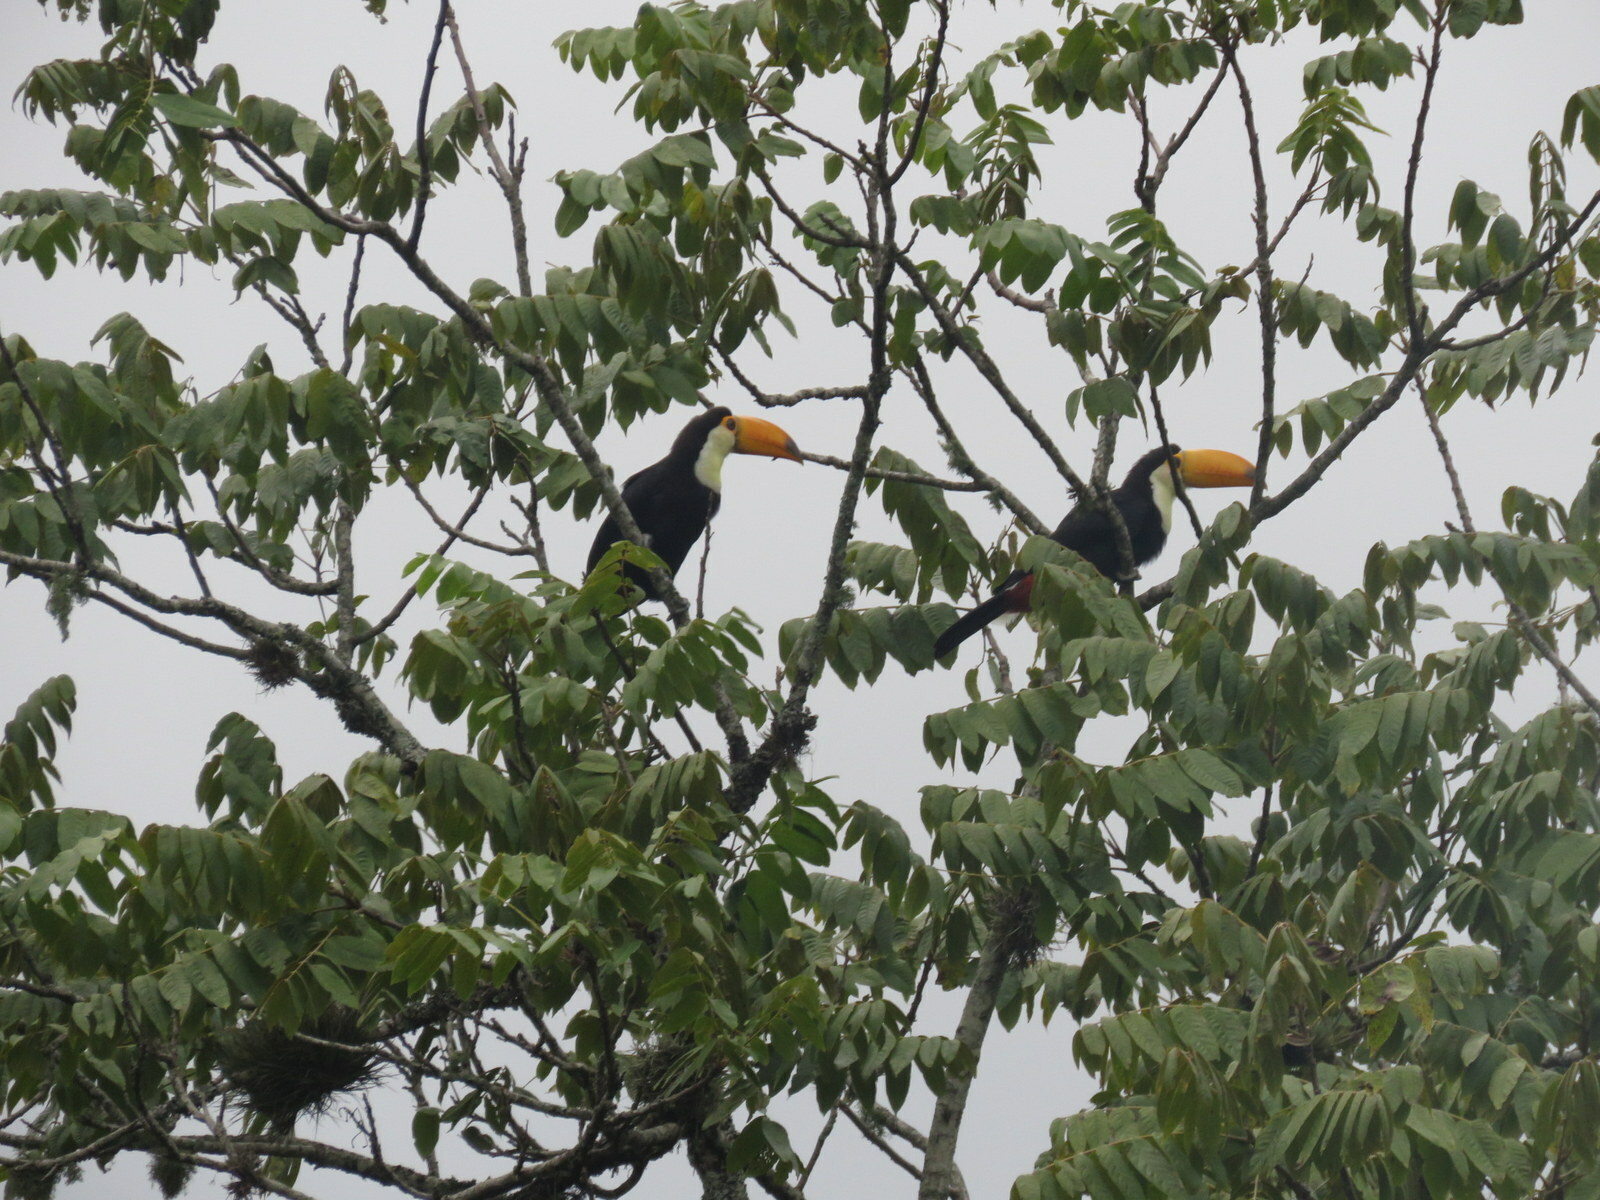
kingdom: Animalia
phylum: Chordata
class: Aves
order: Piciformes
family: Ramphastidae
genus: Ramphastos
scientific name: Ramphastos toco
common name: Toco toucan
